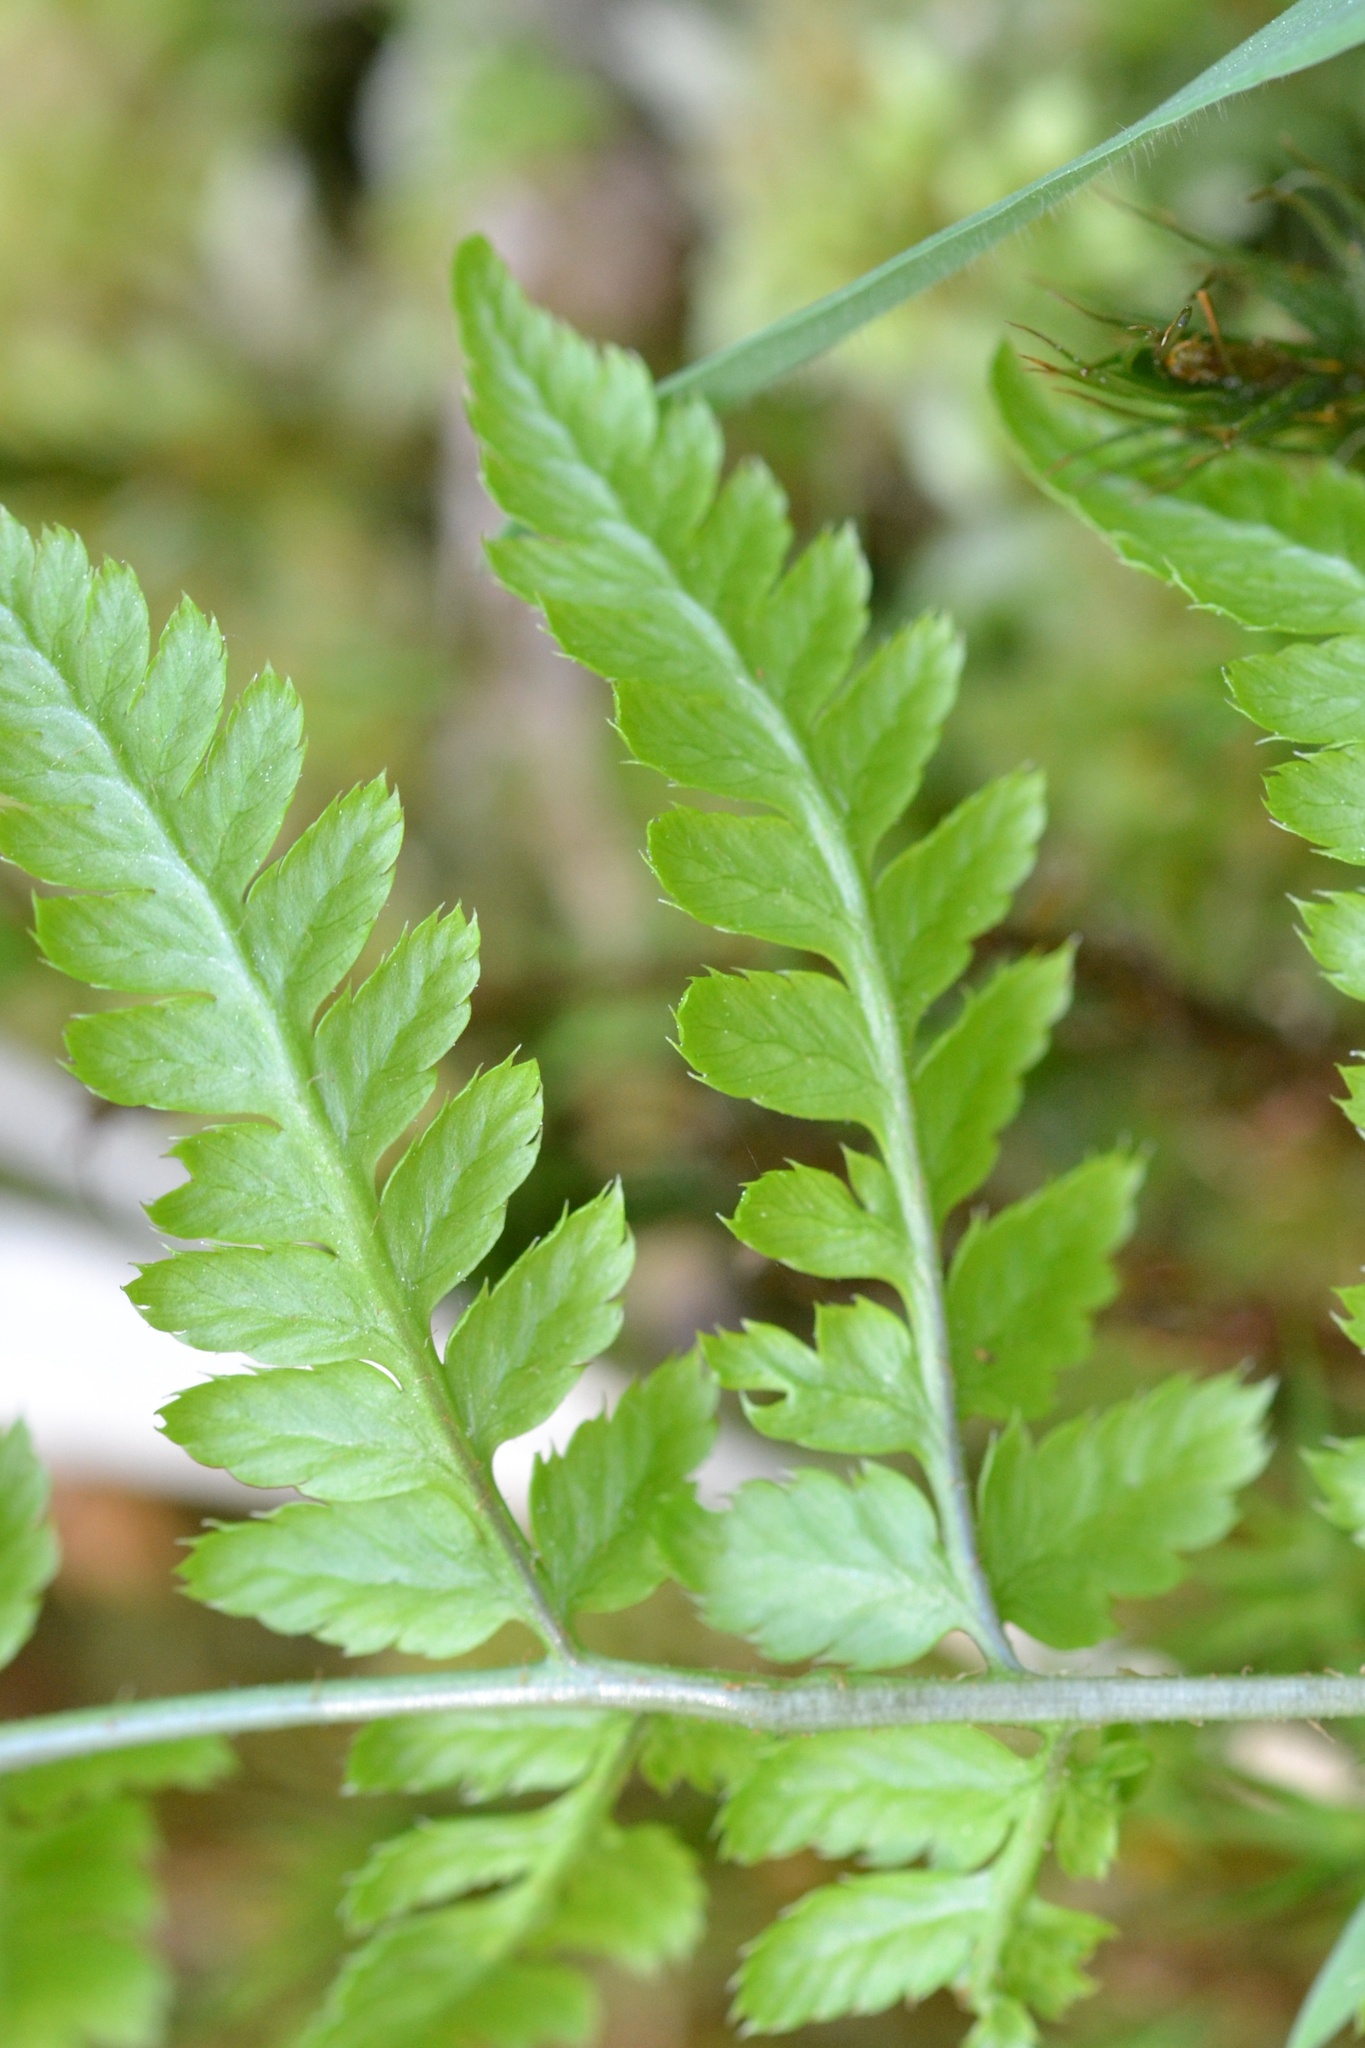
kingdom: Plantae
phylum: Tracheophyta
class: Polypodiopsida
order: Polypodiales
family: Dryopteridaceae
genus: Dryopteris
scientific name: Dryopteris carthusiana
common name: Narrow buckler-fern
